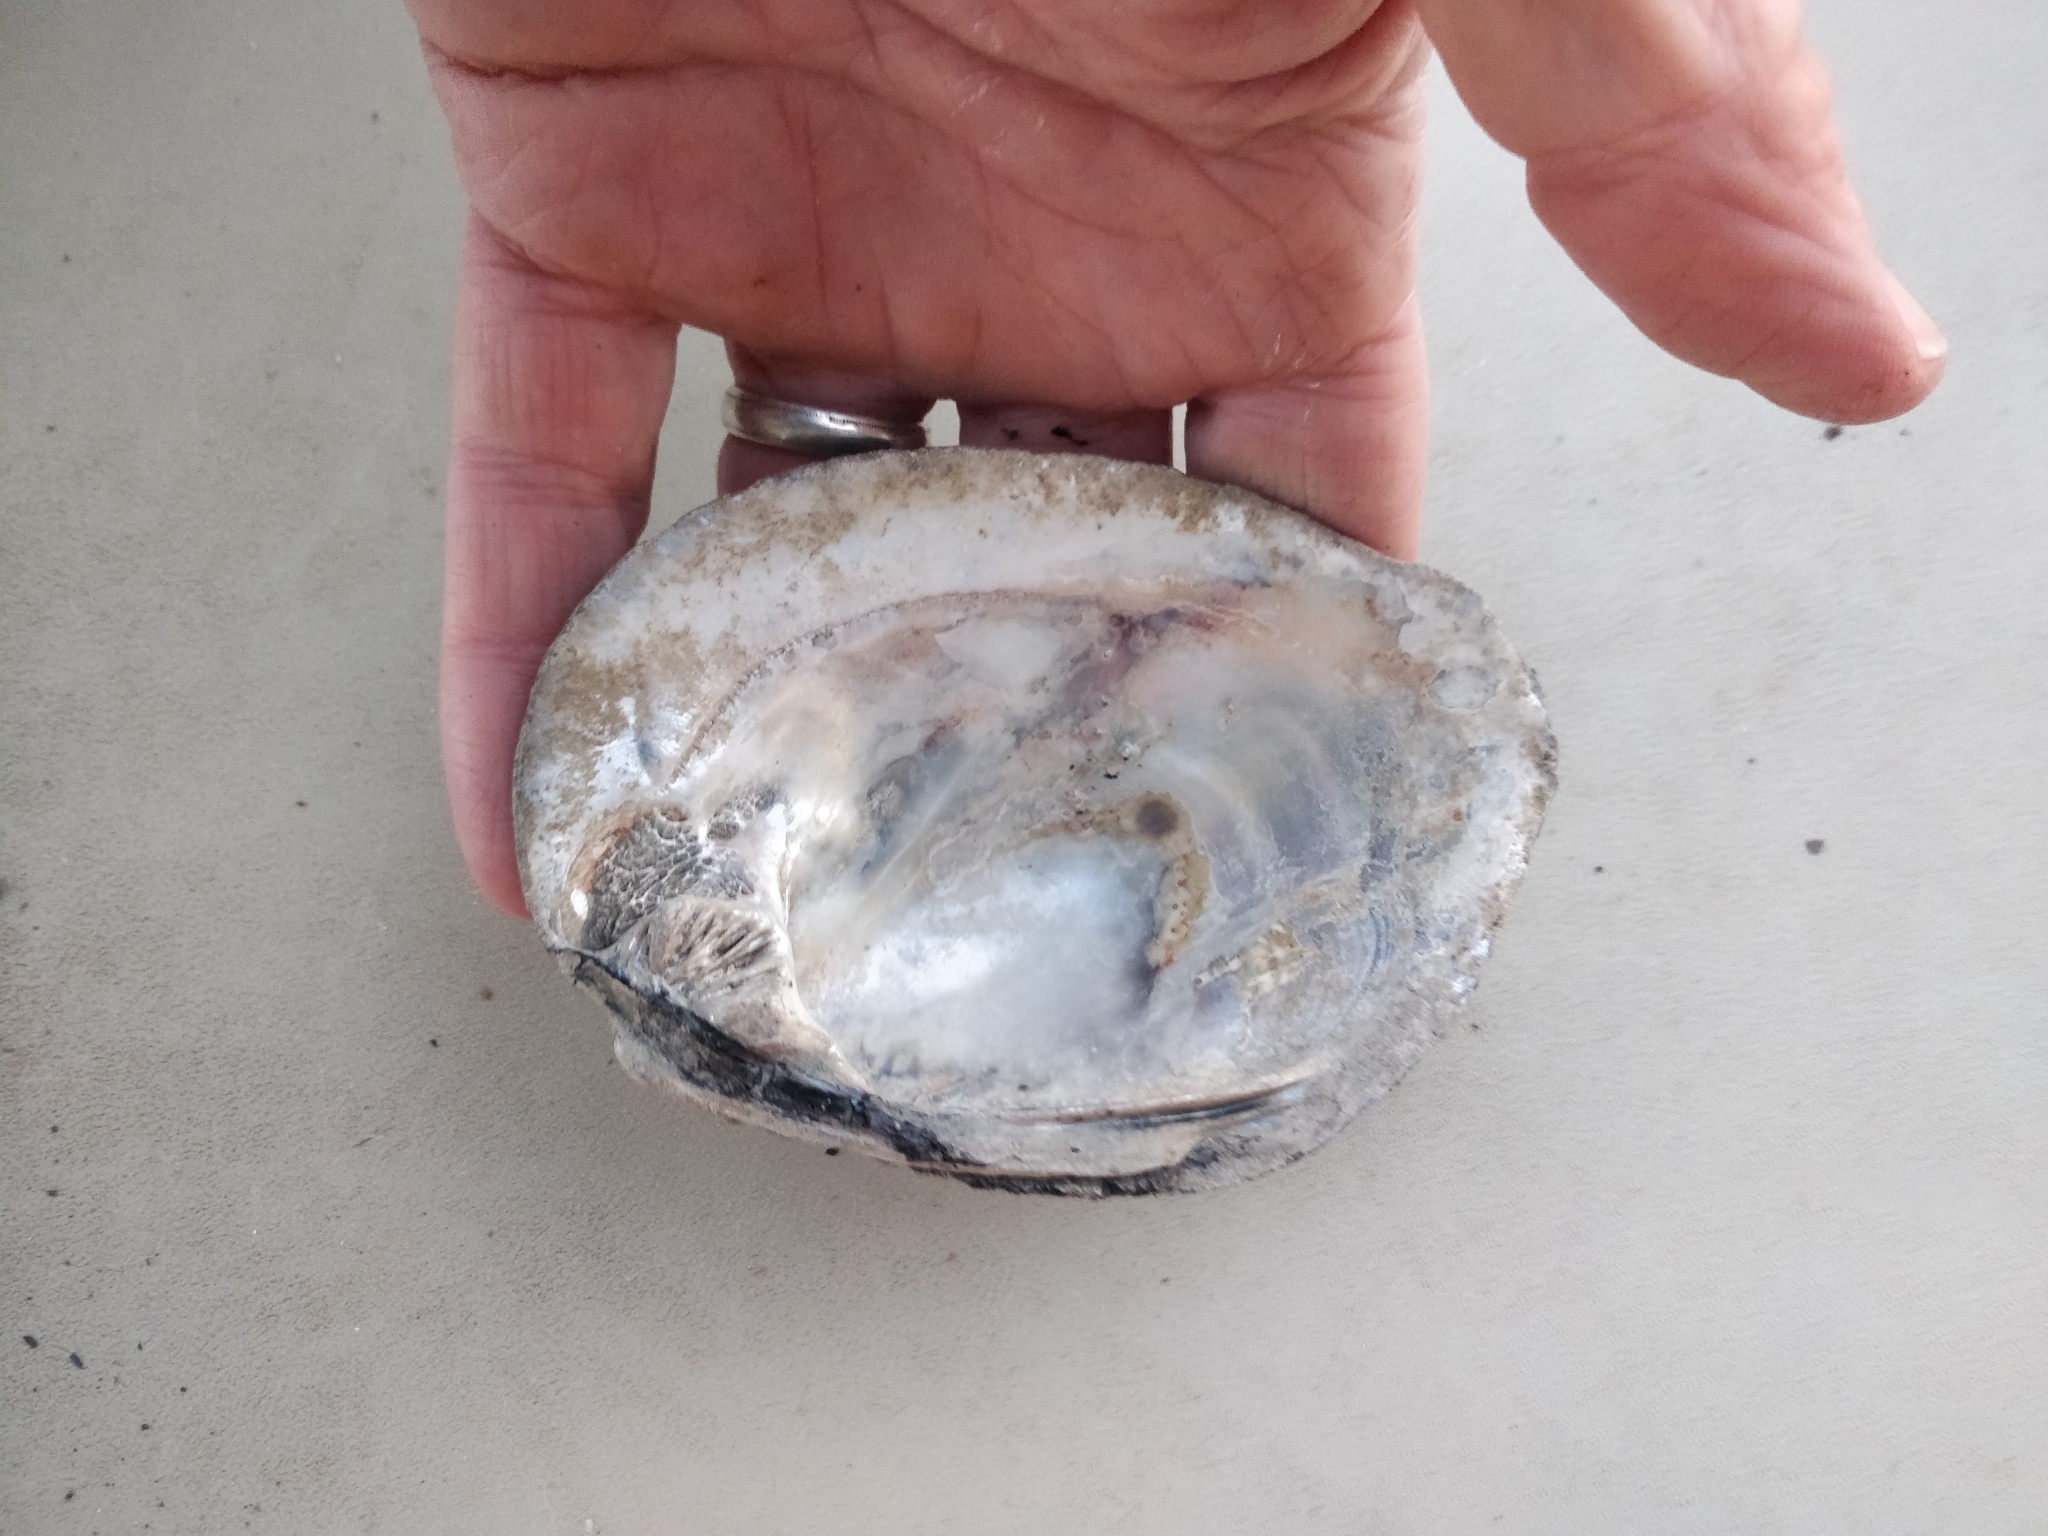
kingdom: Animalia
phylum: Mollusca
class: Bivalvia
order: Unionida
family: Unionidae
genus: Amblema
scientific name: Amblema plicata
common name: Threeridge
